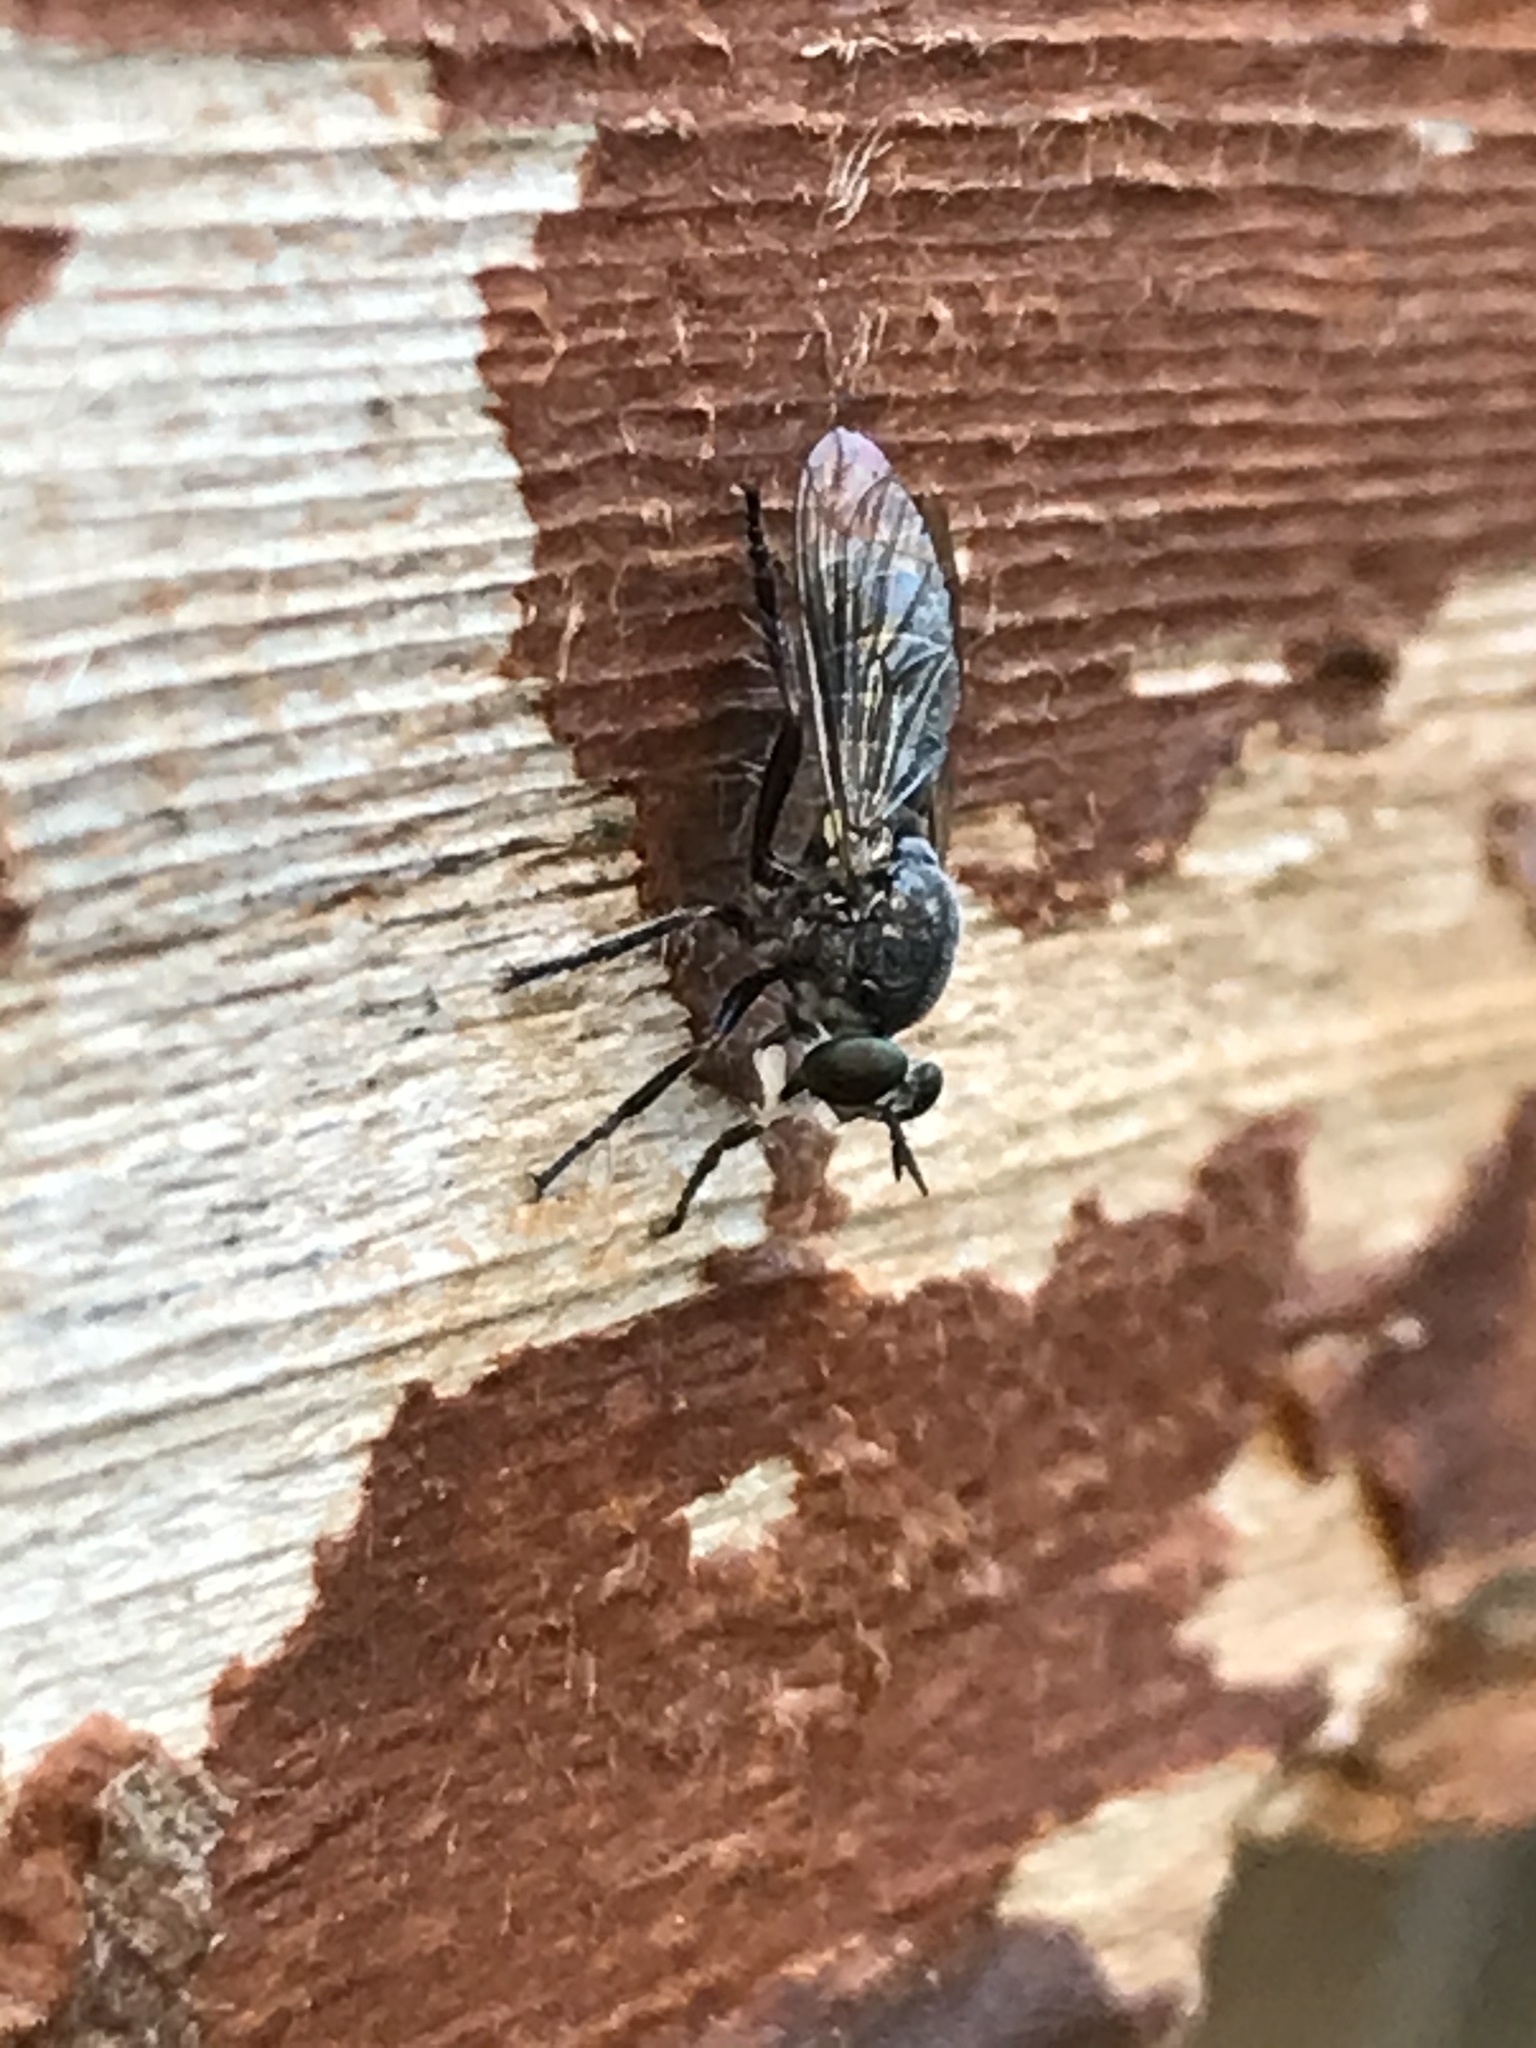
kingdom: Animalia
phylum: Arthropoda
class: Insecta
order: Diptera
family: Asilidae
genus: Atomosia
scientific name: Atomosia melanopogon
